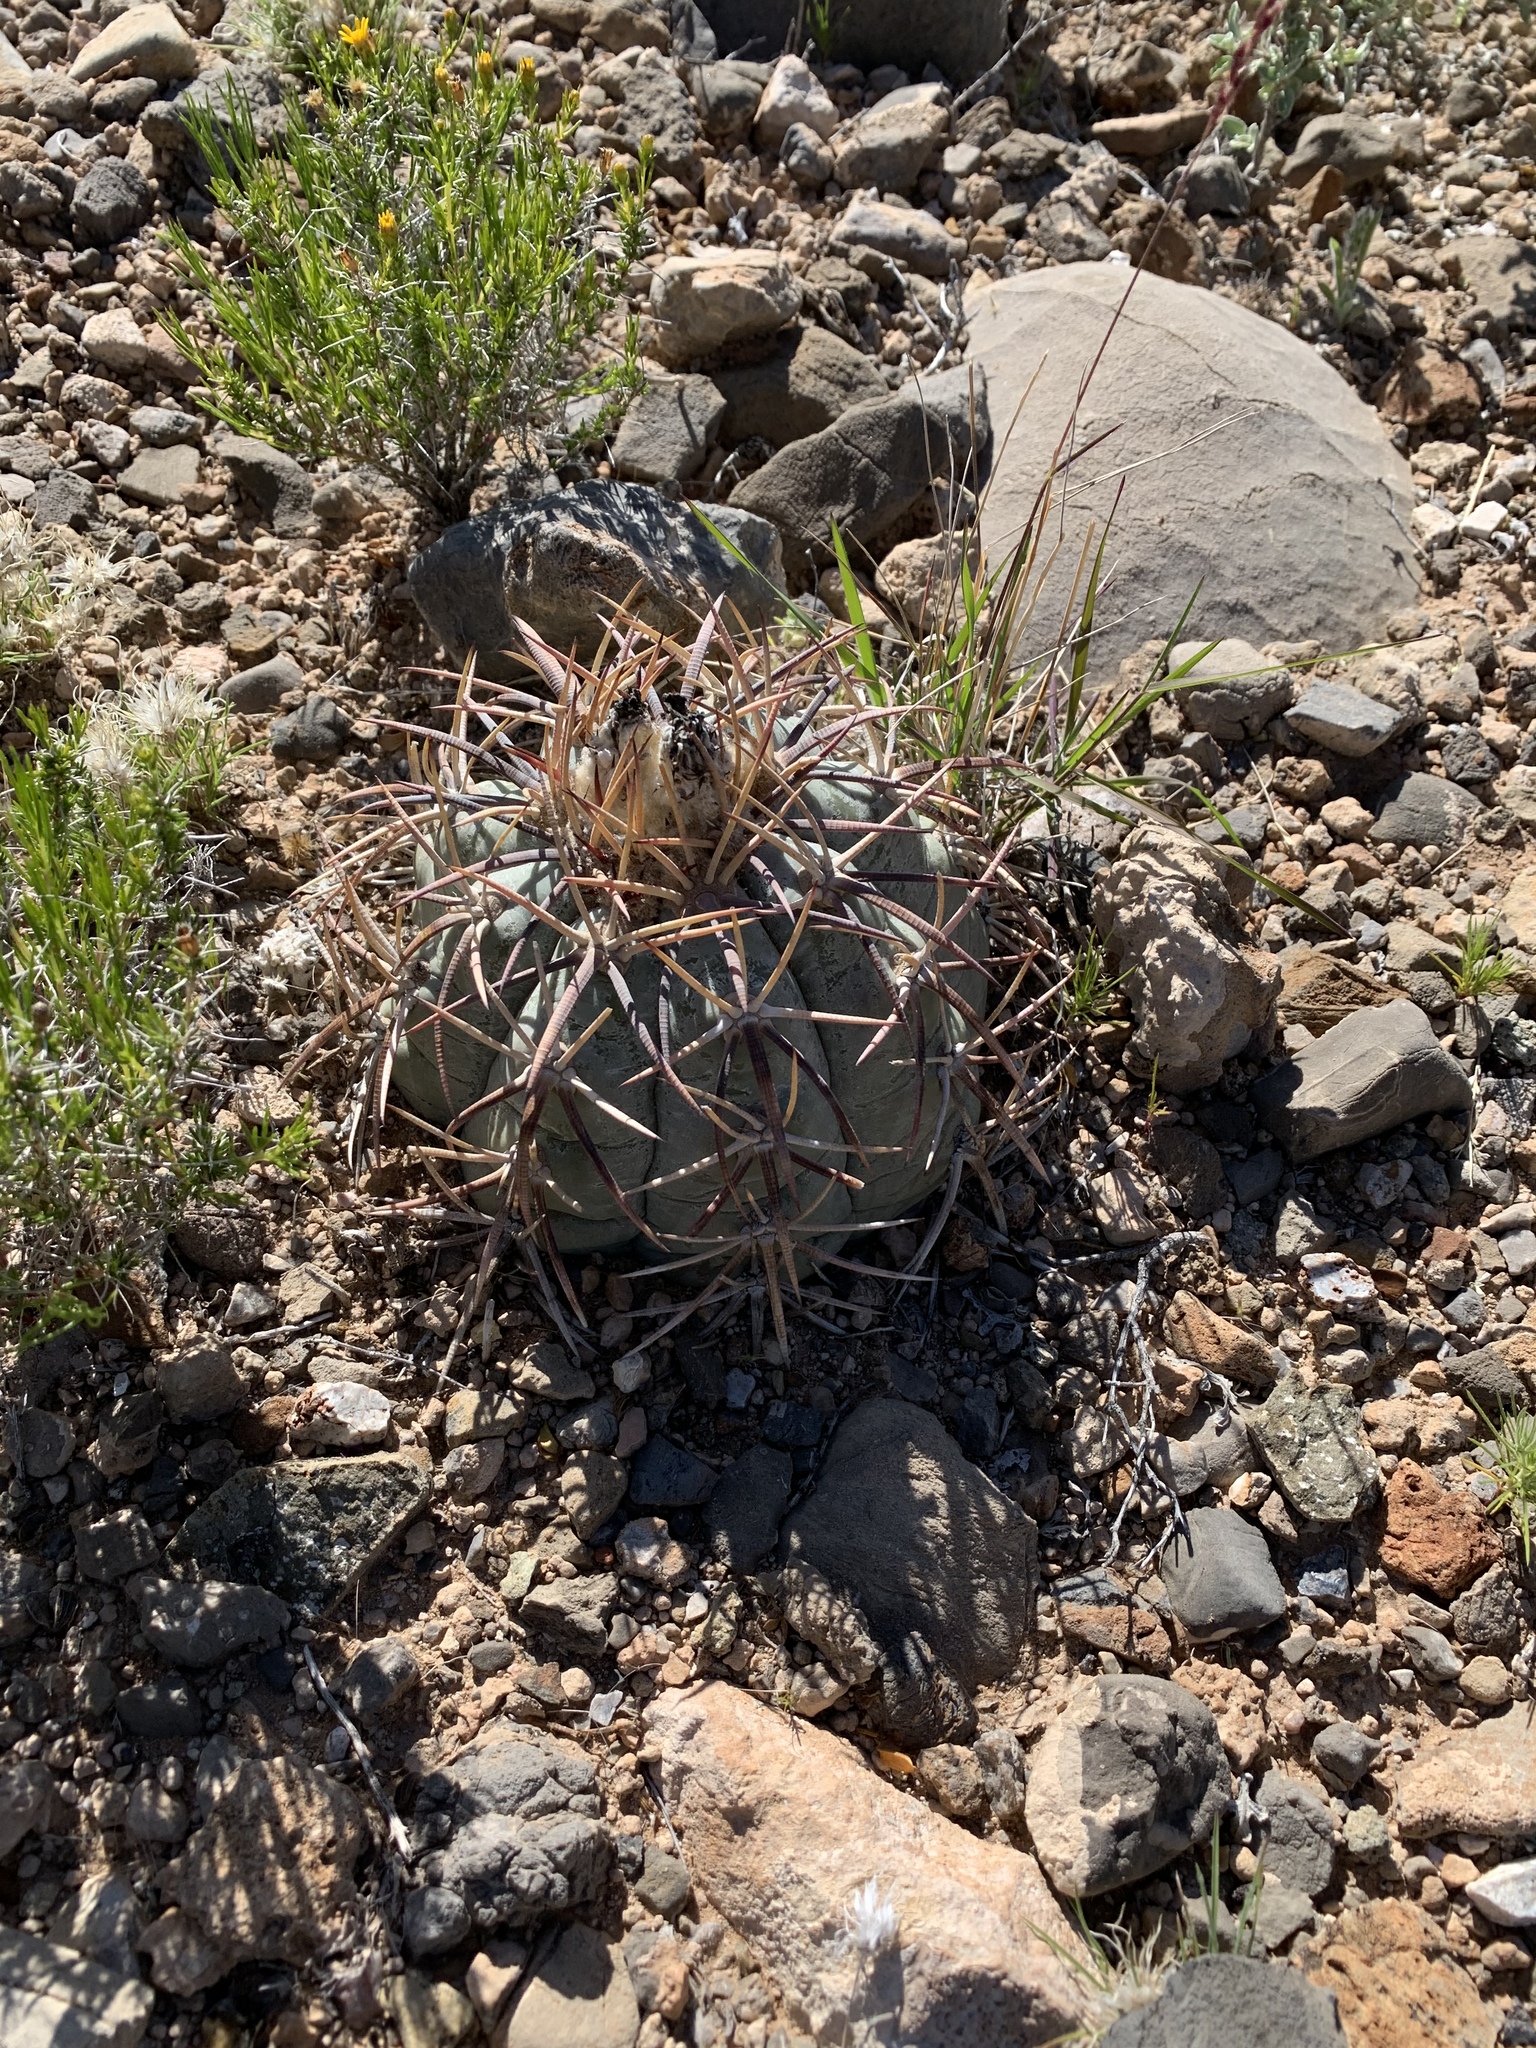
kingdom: Plantae
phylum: Tracheophyta
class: Magnoliopsida
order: Caryophyllales
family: Cactaceae
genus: Echinocactus
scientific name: Echinocactus horizonthalonius
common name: Devilshead
